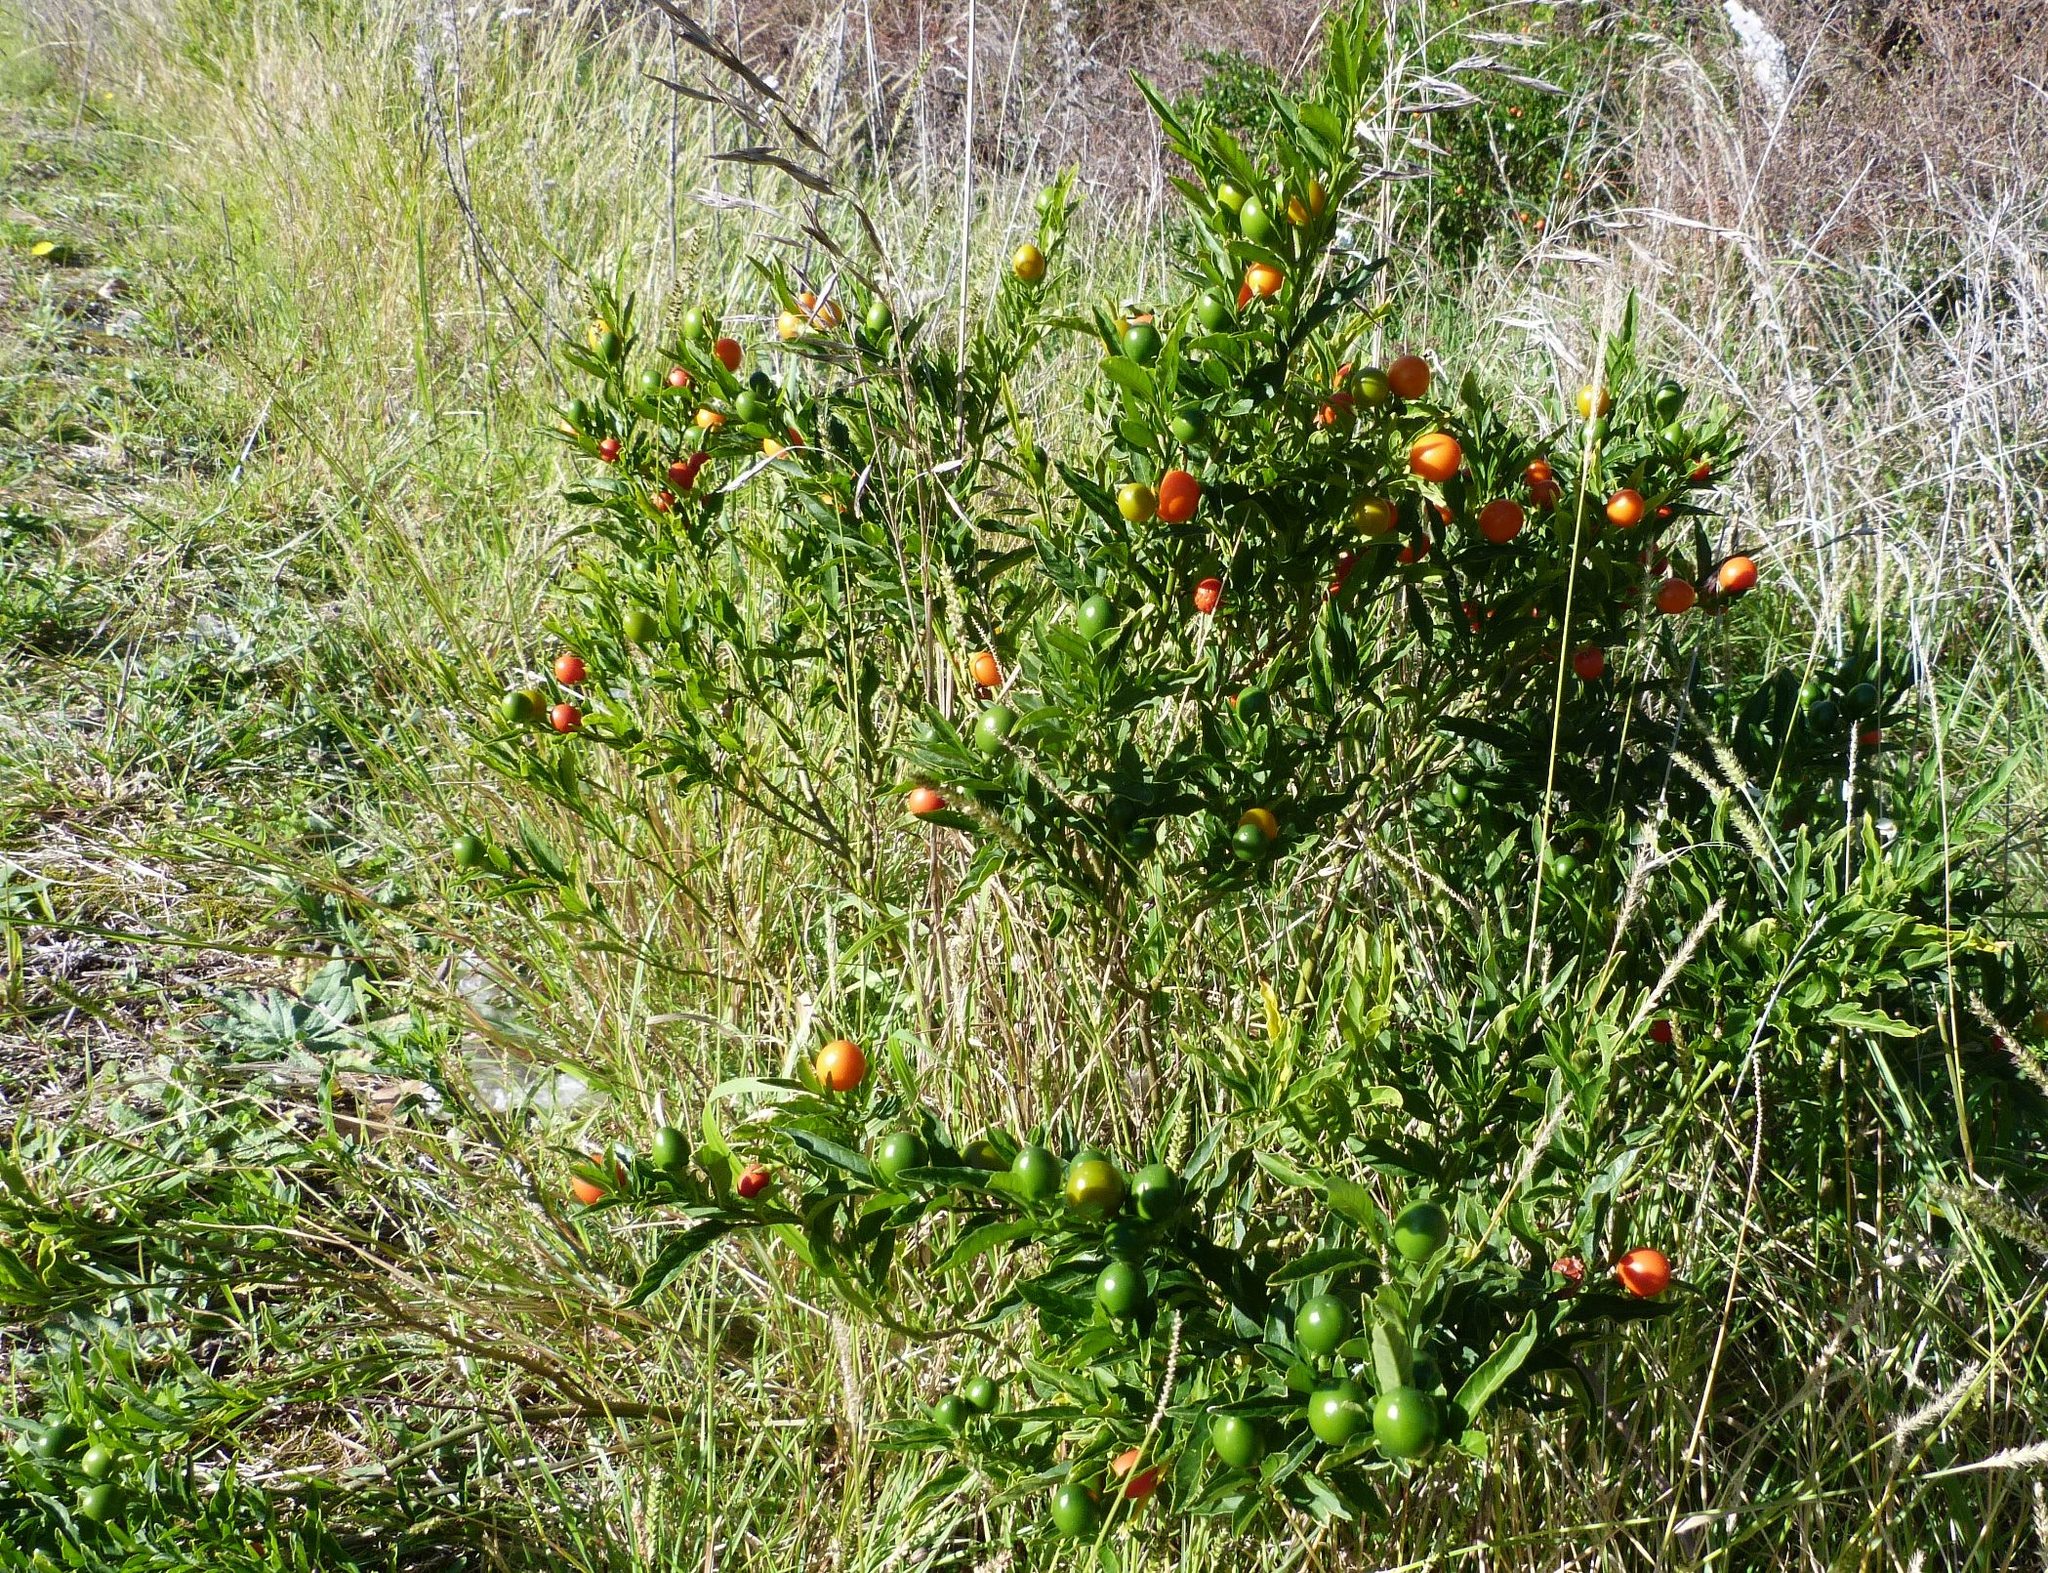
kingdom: Plantae
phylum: Tracheophyta
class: Magnoliopsida
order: Solanales
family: Solanaceae
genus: Solanum
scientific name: Solanum pseudocapsicum
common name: Jerusalem cherry
